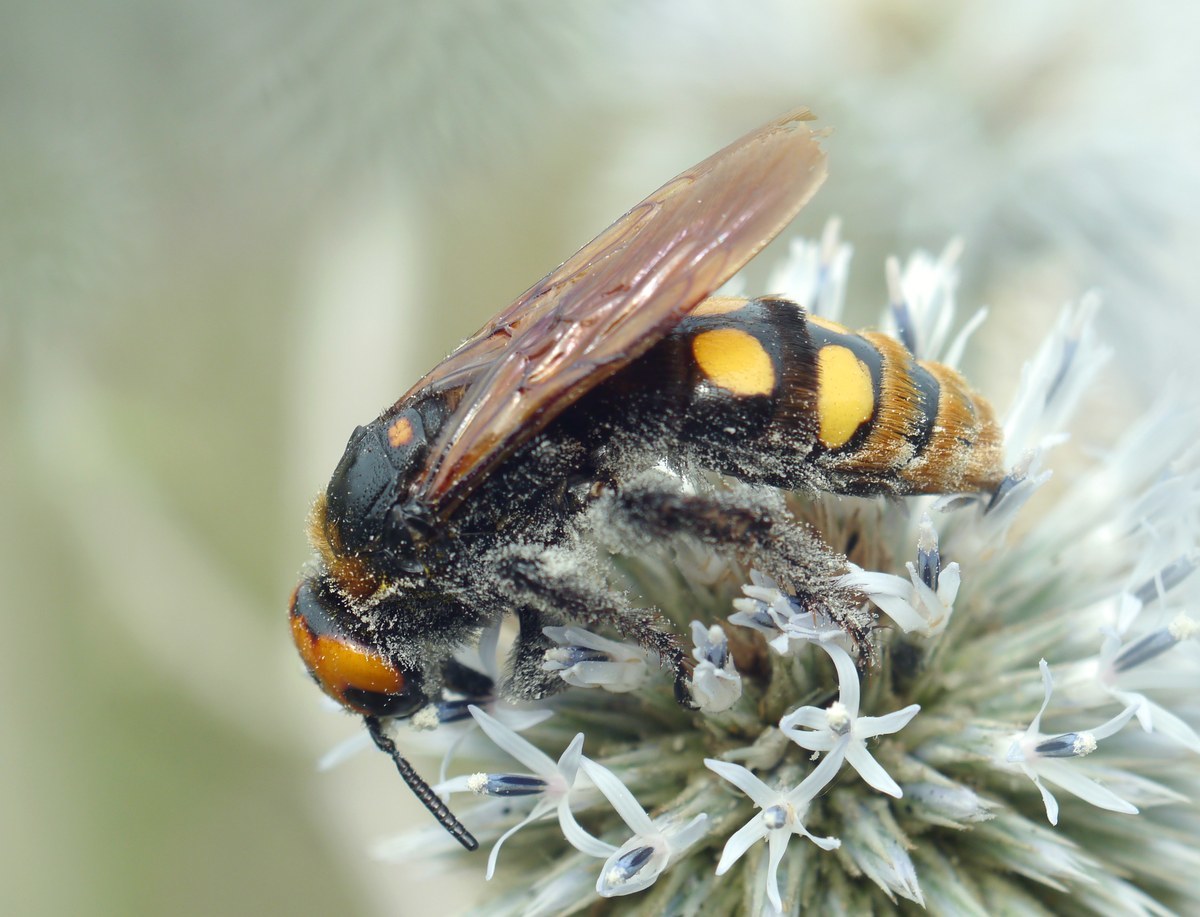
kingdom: Animalia
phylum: Arthropoda
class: Insecta
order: Hymenoptera
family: Scoliidae
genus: Megascolia
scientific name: Megascolia maculata
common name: Mammoth wasp
